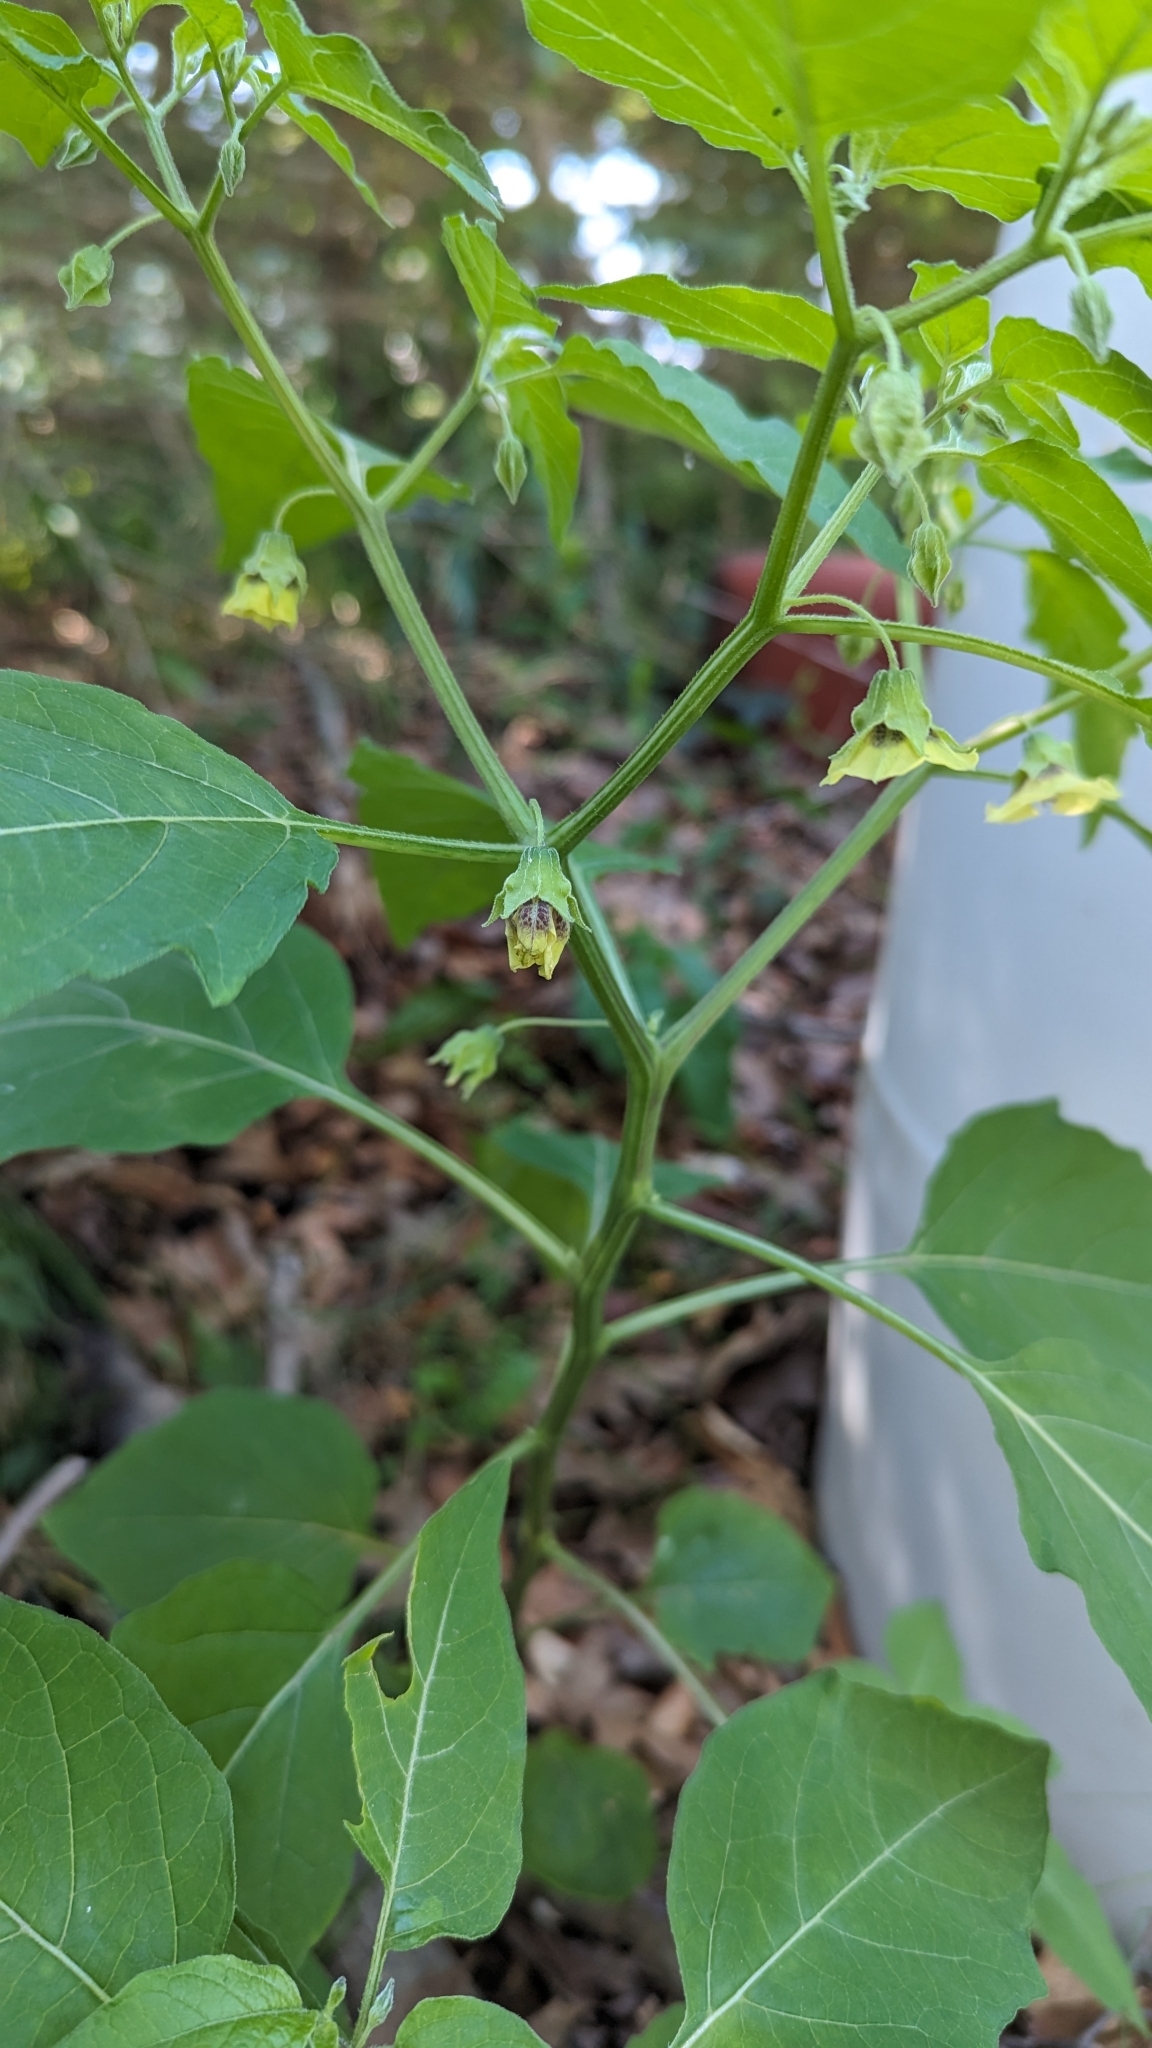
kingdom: Plantae
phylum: Tracheophyta
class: Magnoliopsida
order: Solanales
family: Solanaceae
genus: Physalis
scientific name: Physalis longifolia
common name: Common ground-cherry
